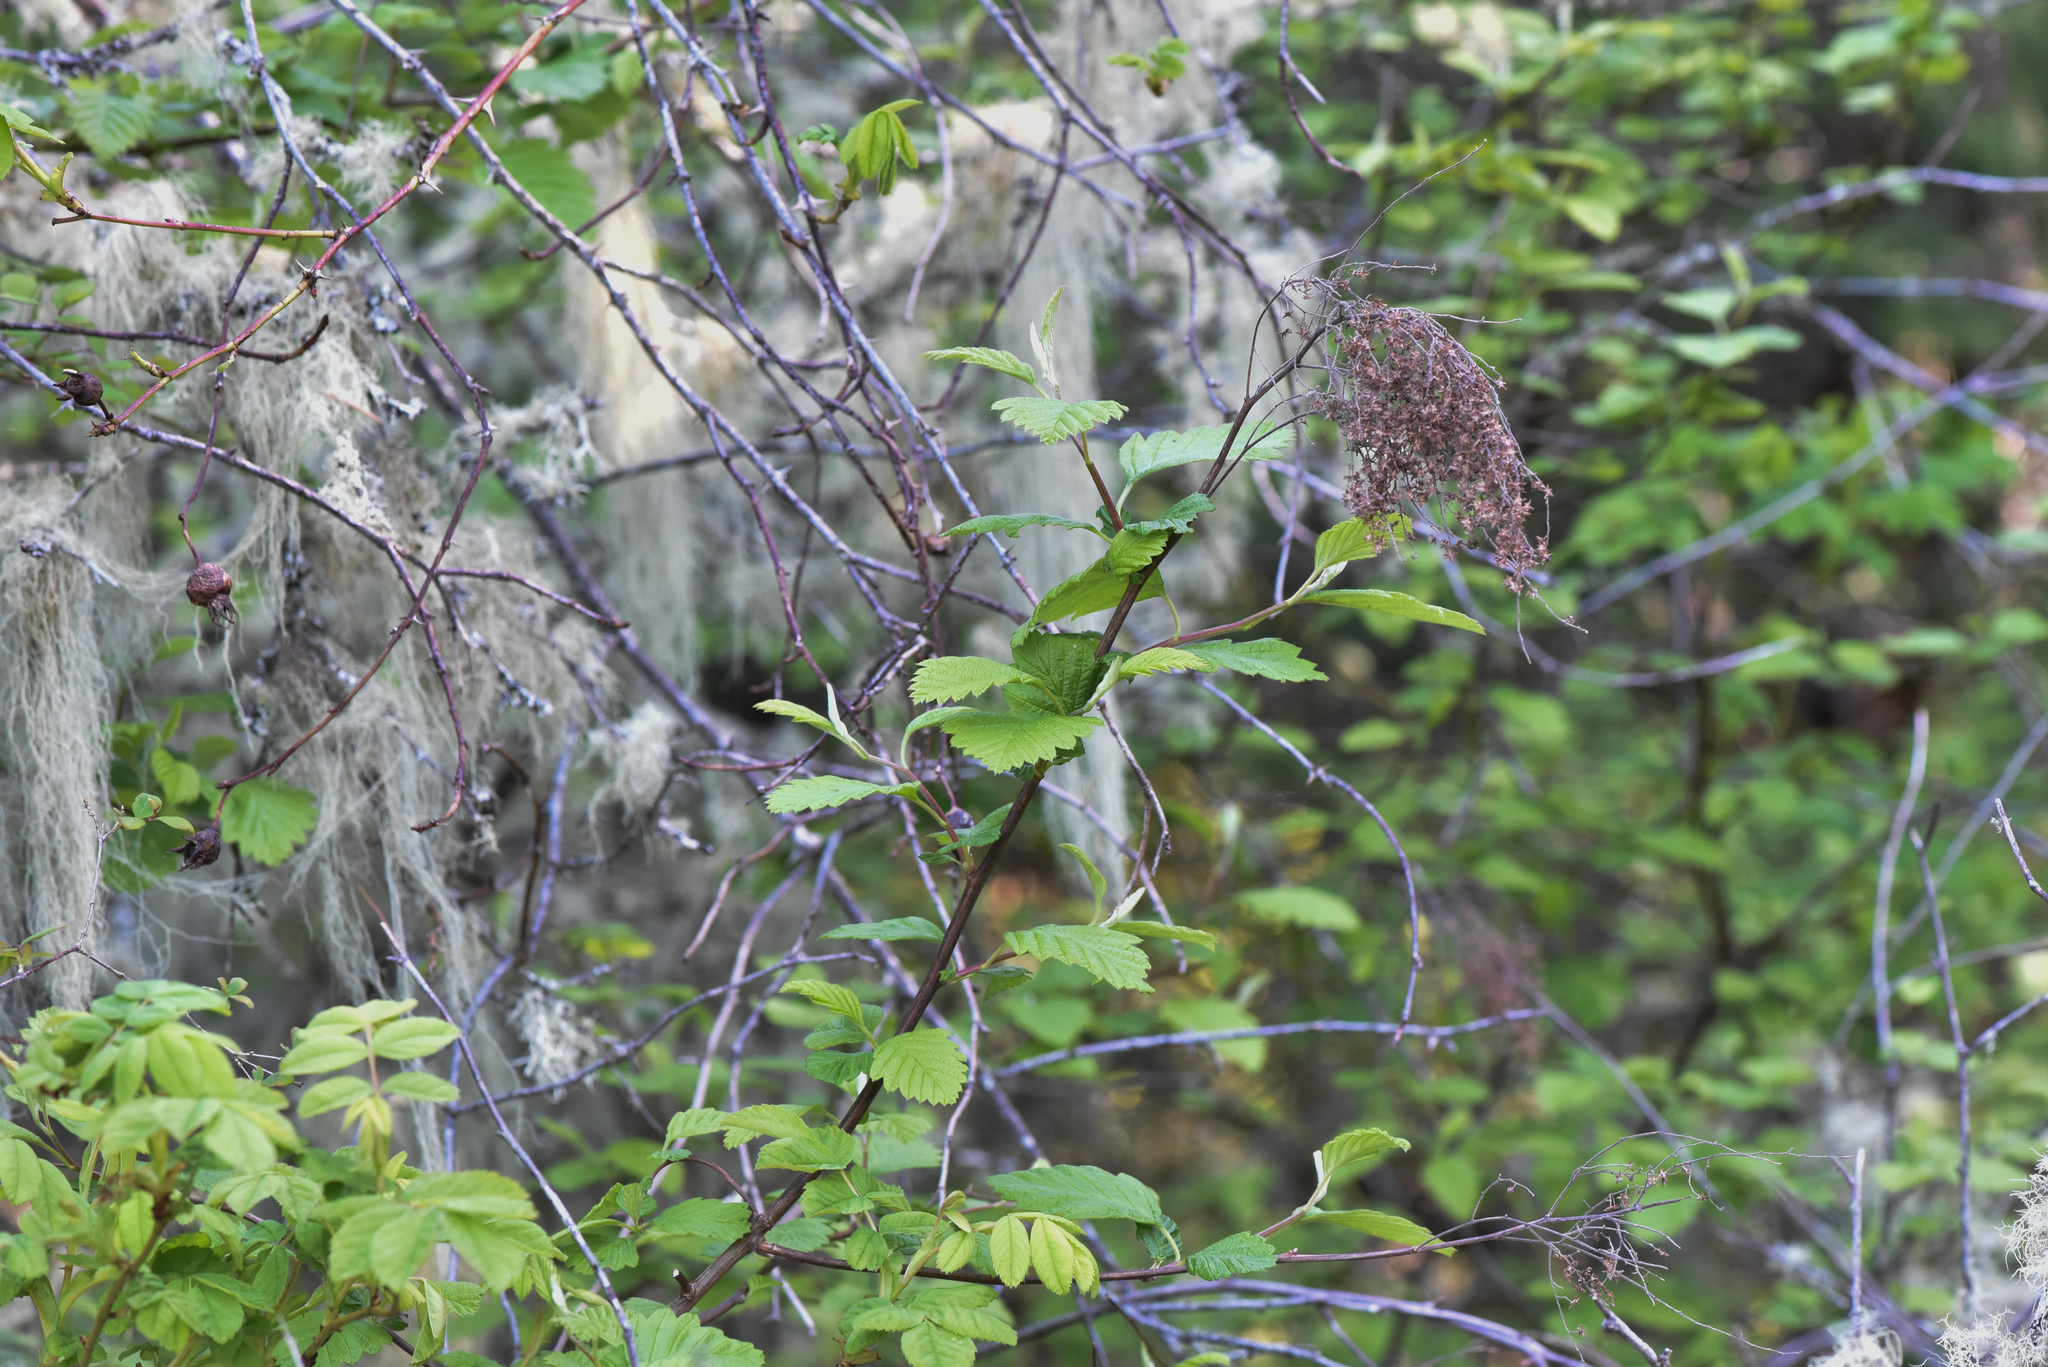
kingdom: Plantae
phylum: Tracheophyta
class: Magnoliopsida
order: Rosales
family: Rosaceae
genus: Holodiscus
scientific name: Holodiscus discolor
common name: Oceanspray
